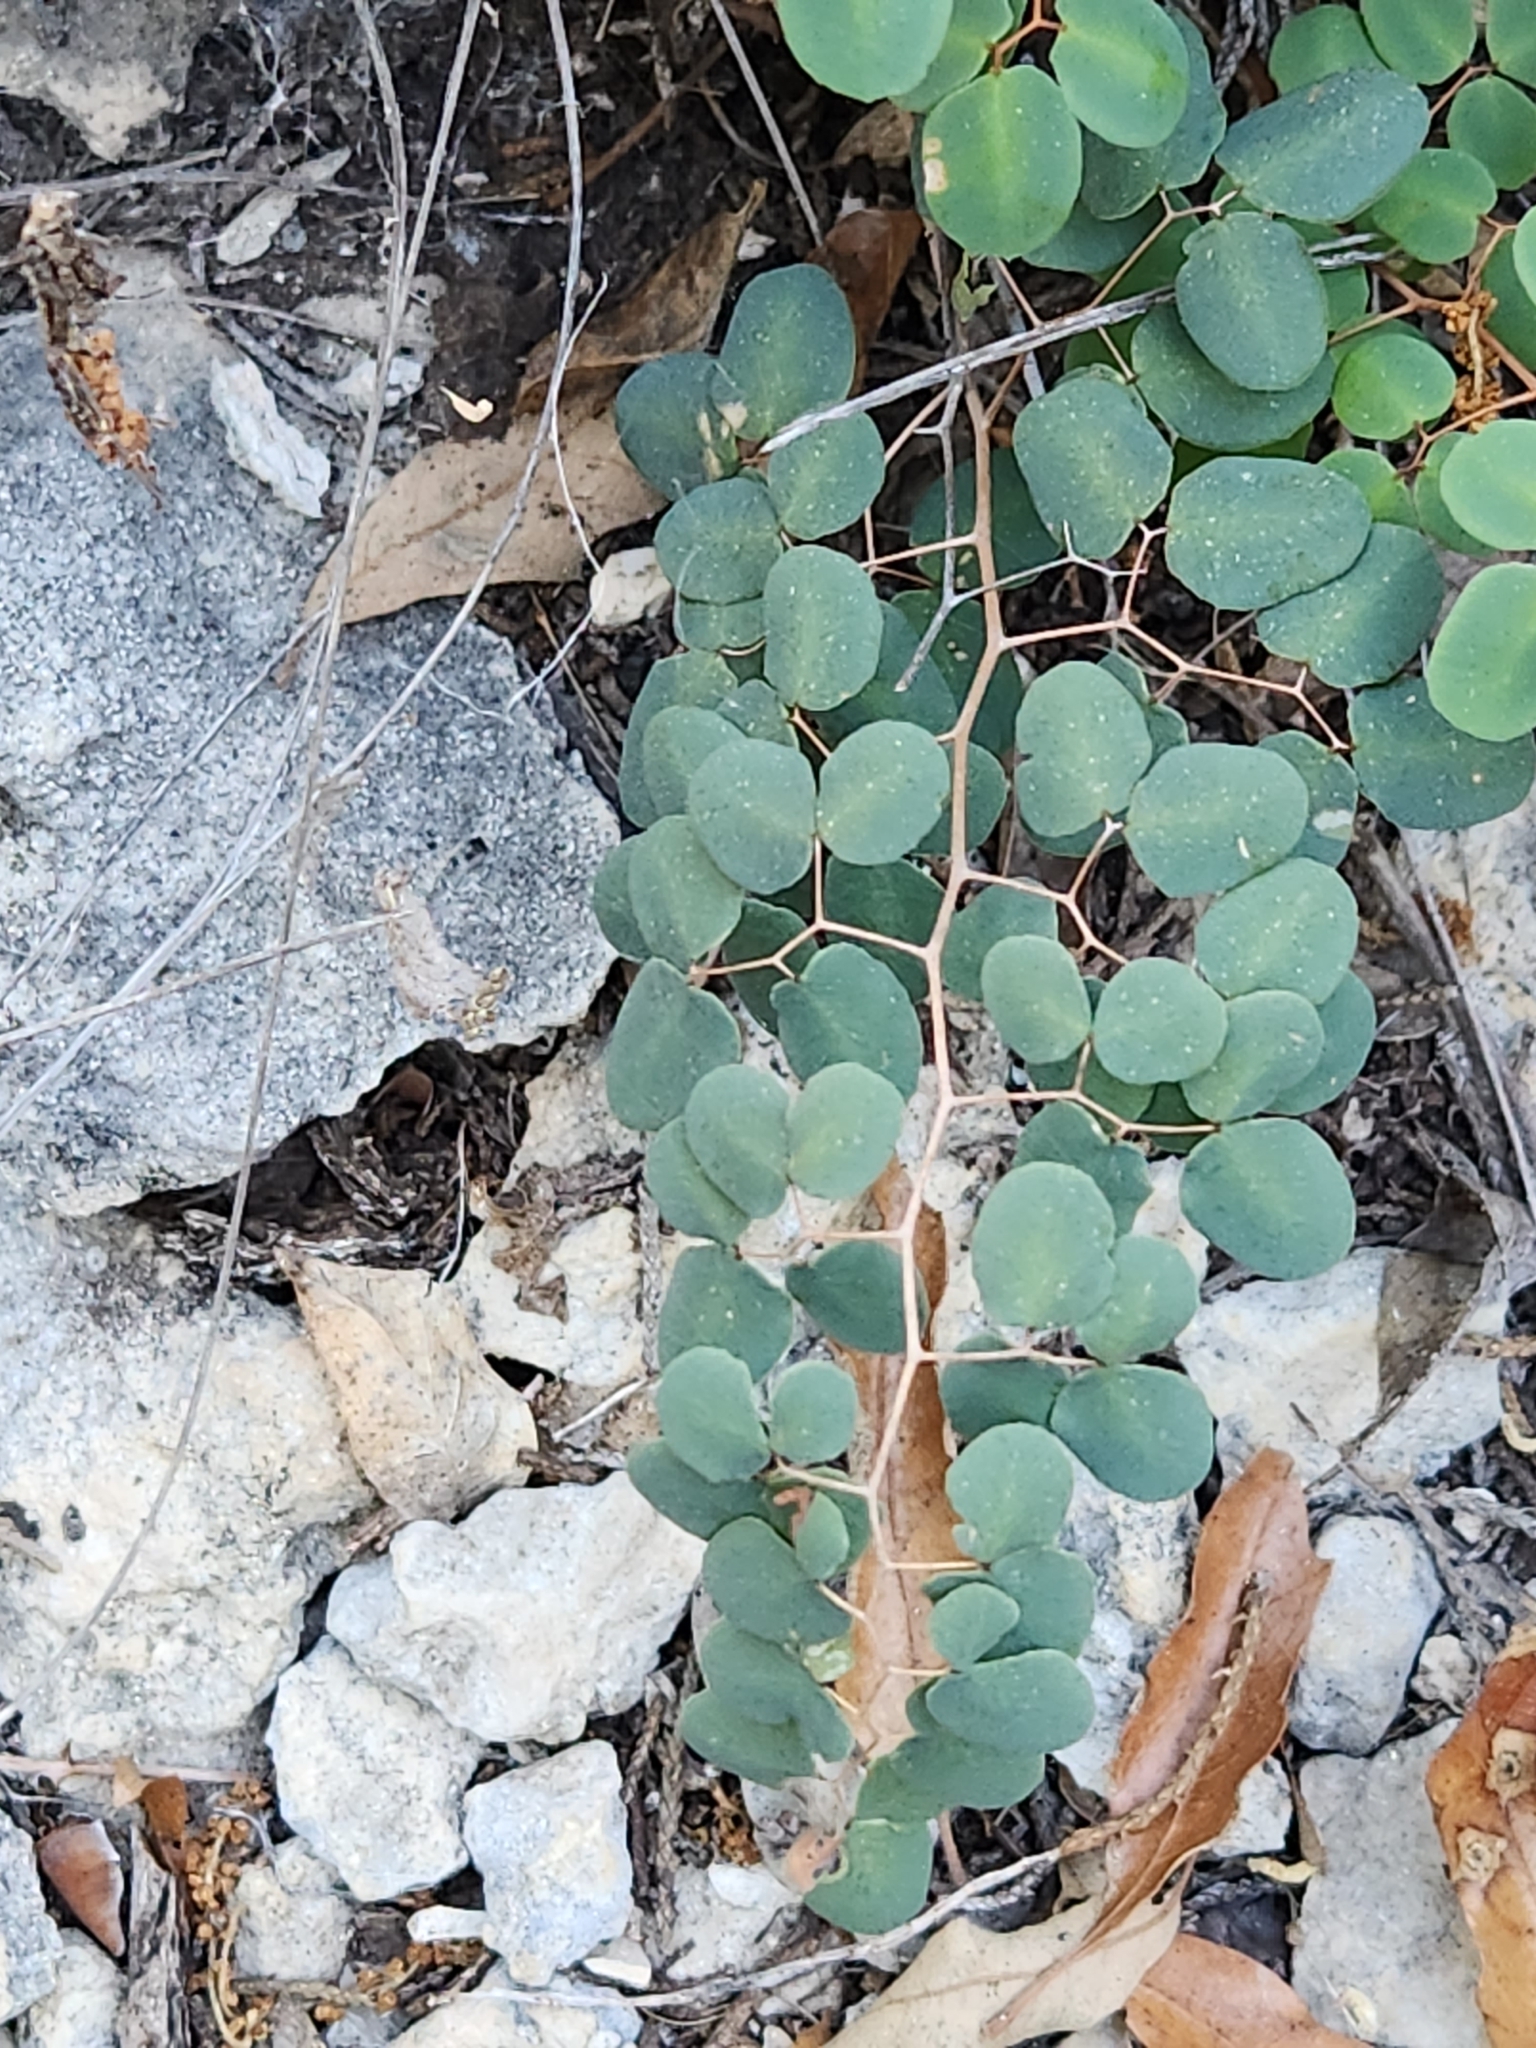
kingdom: Plantae
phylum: Tracheophyta
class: Polypodiopsida
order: Polypodiales
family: Pteridaceae
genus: Pellaea
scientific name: Pellaea ovata
